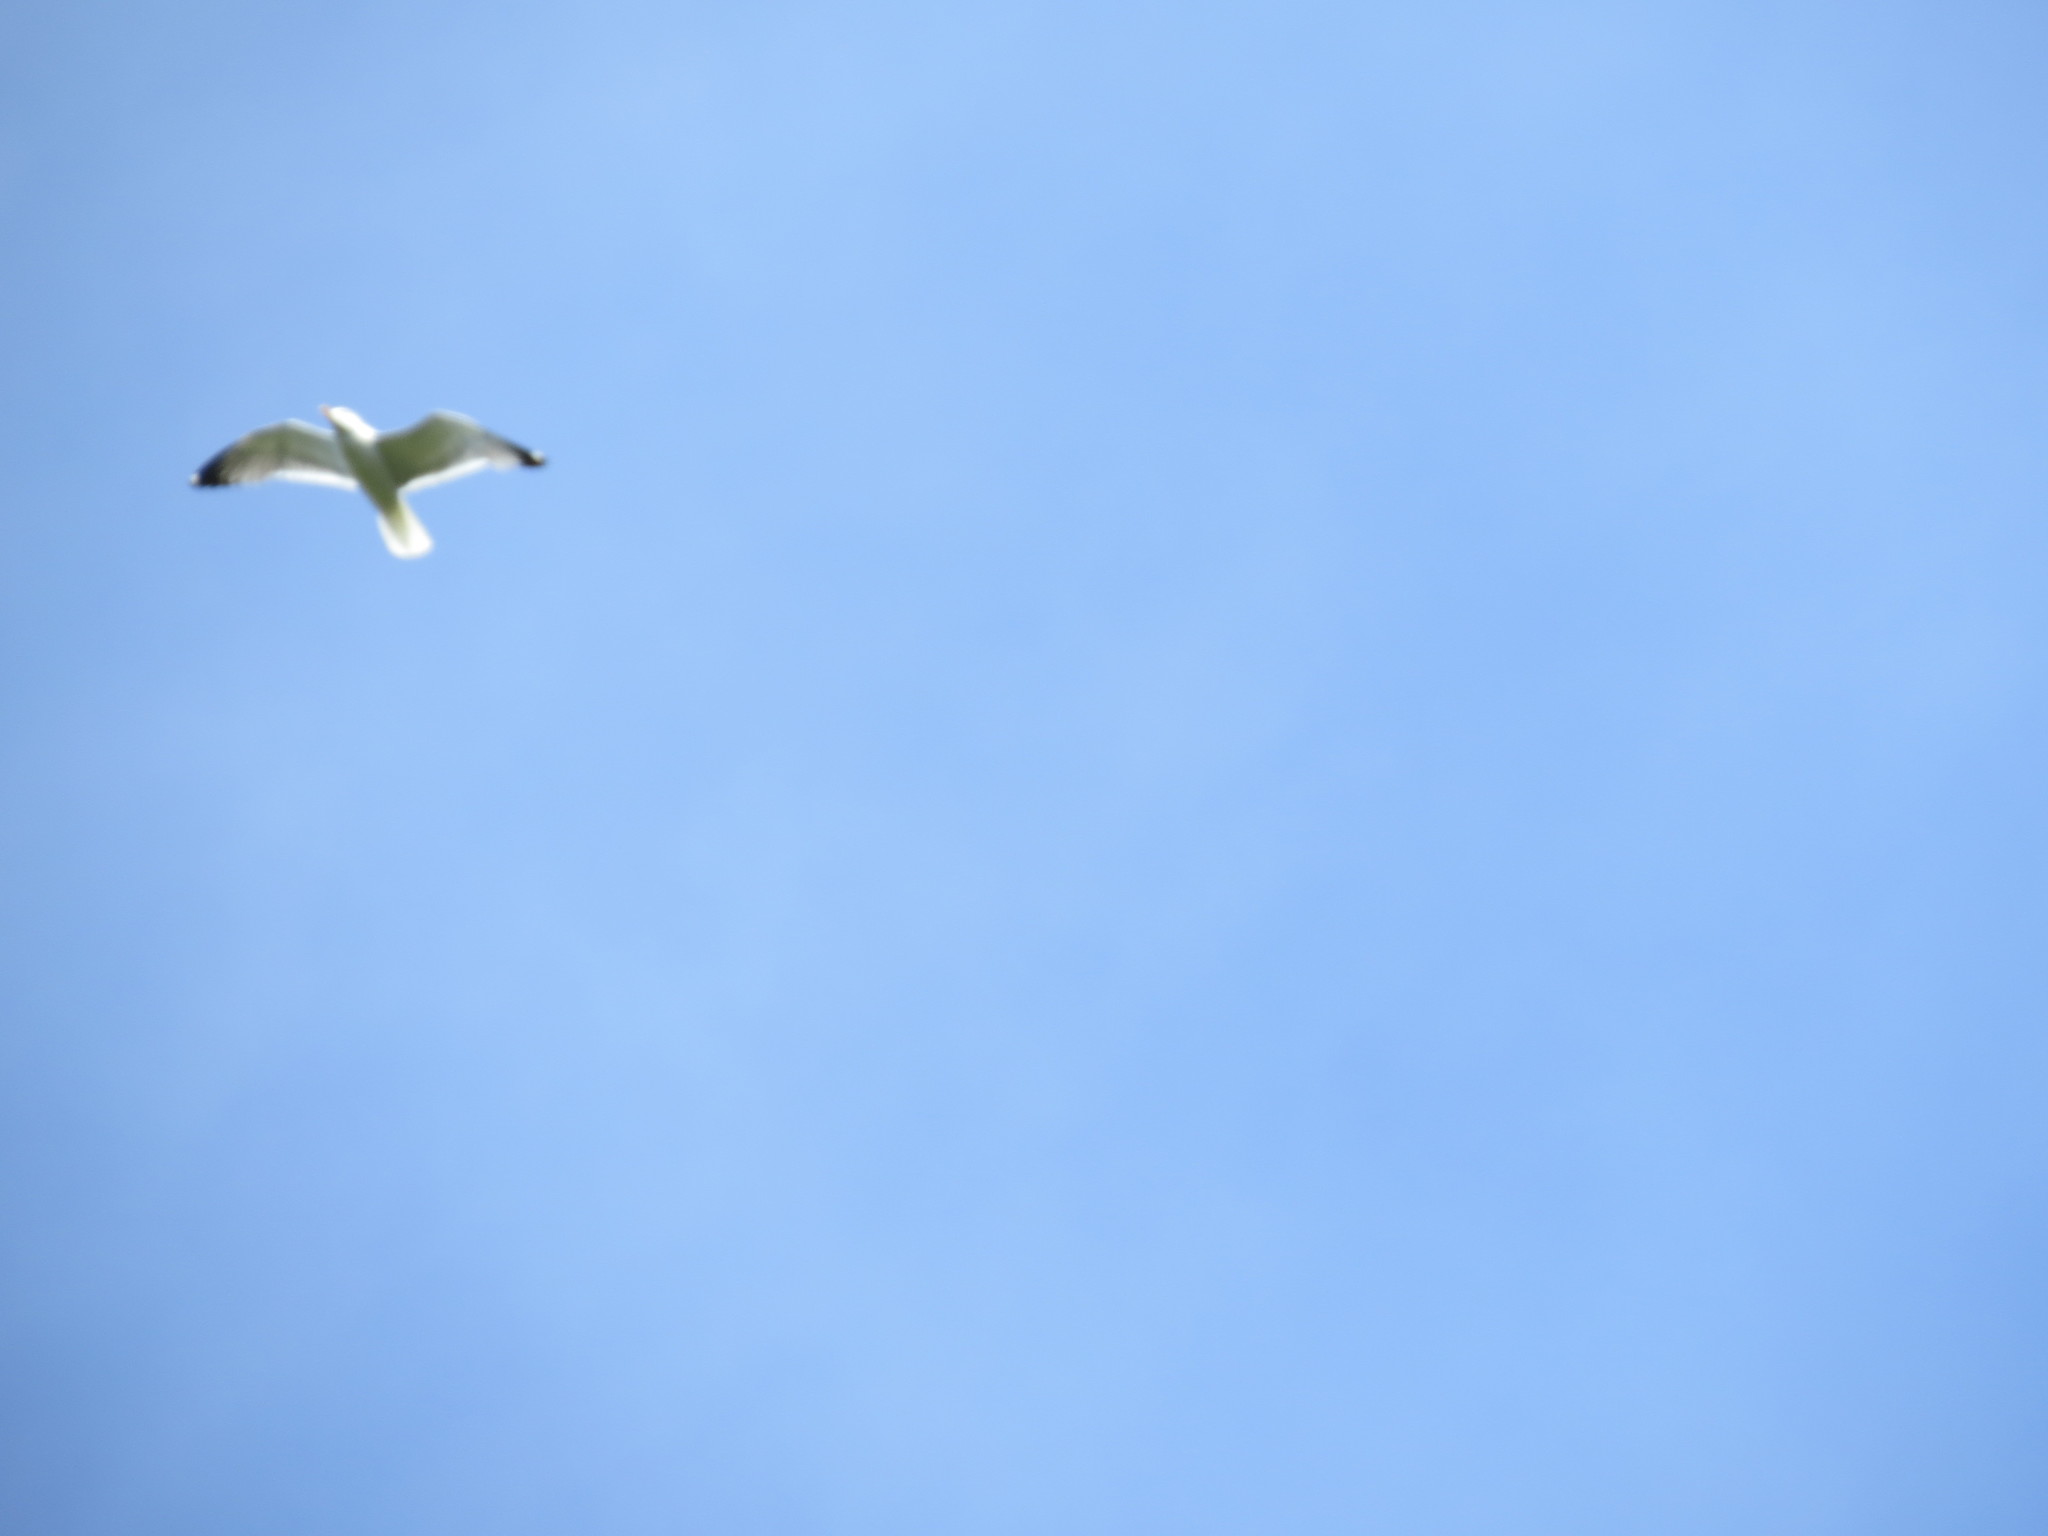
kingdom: Animalia
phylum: Chordata
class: Aves
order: Charadriiformes
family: Laridae
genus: Larus
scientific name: Larus canus
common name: Mew gull
